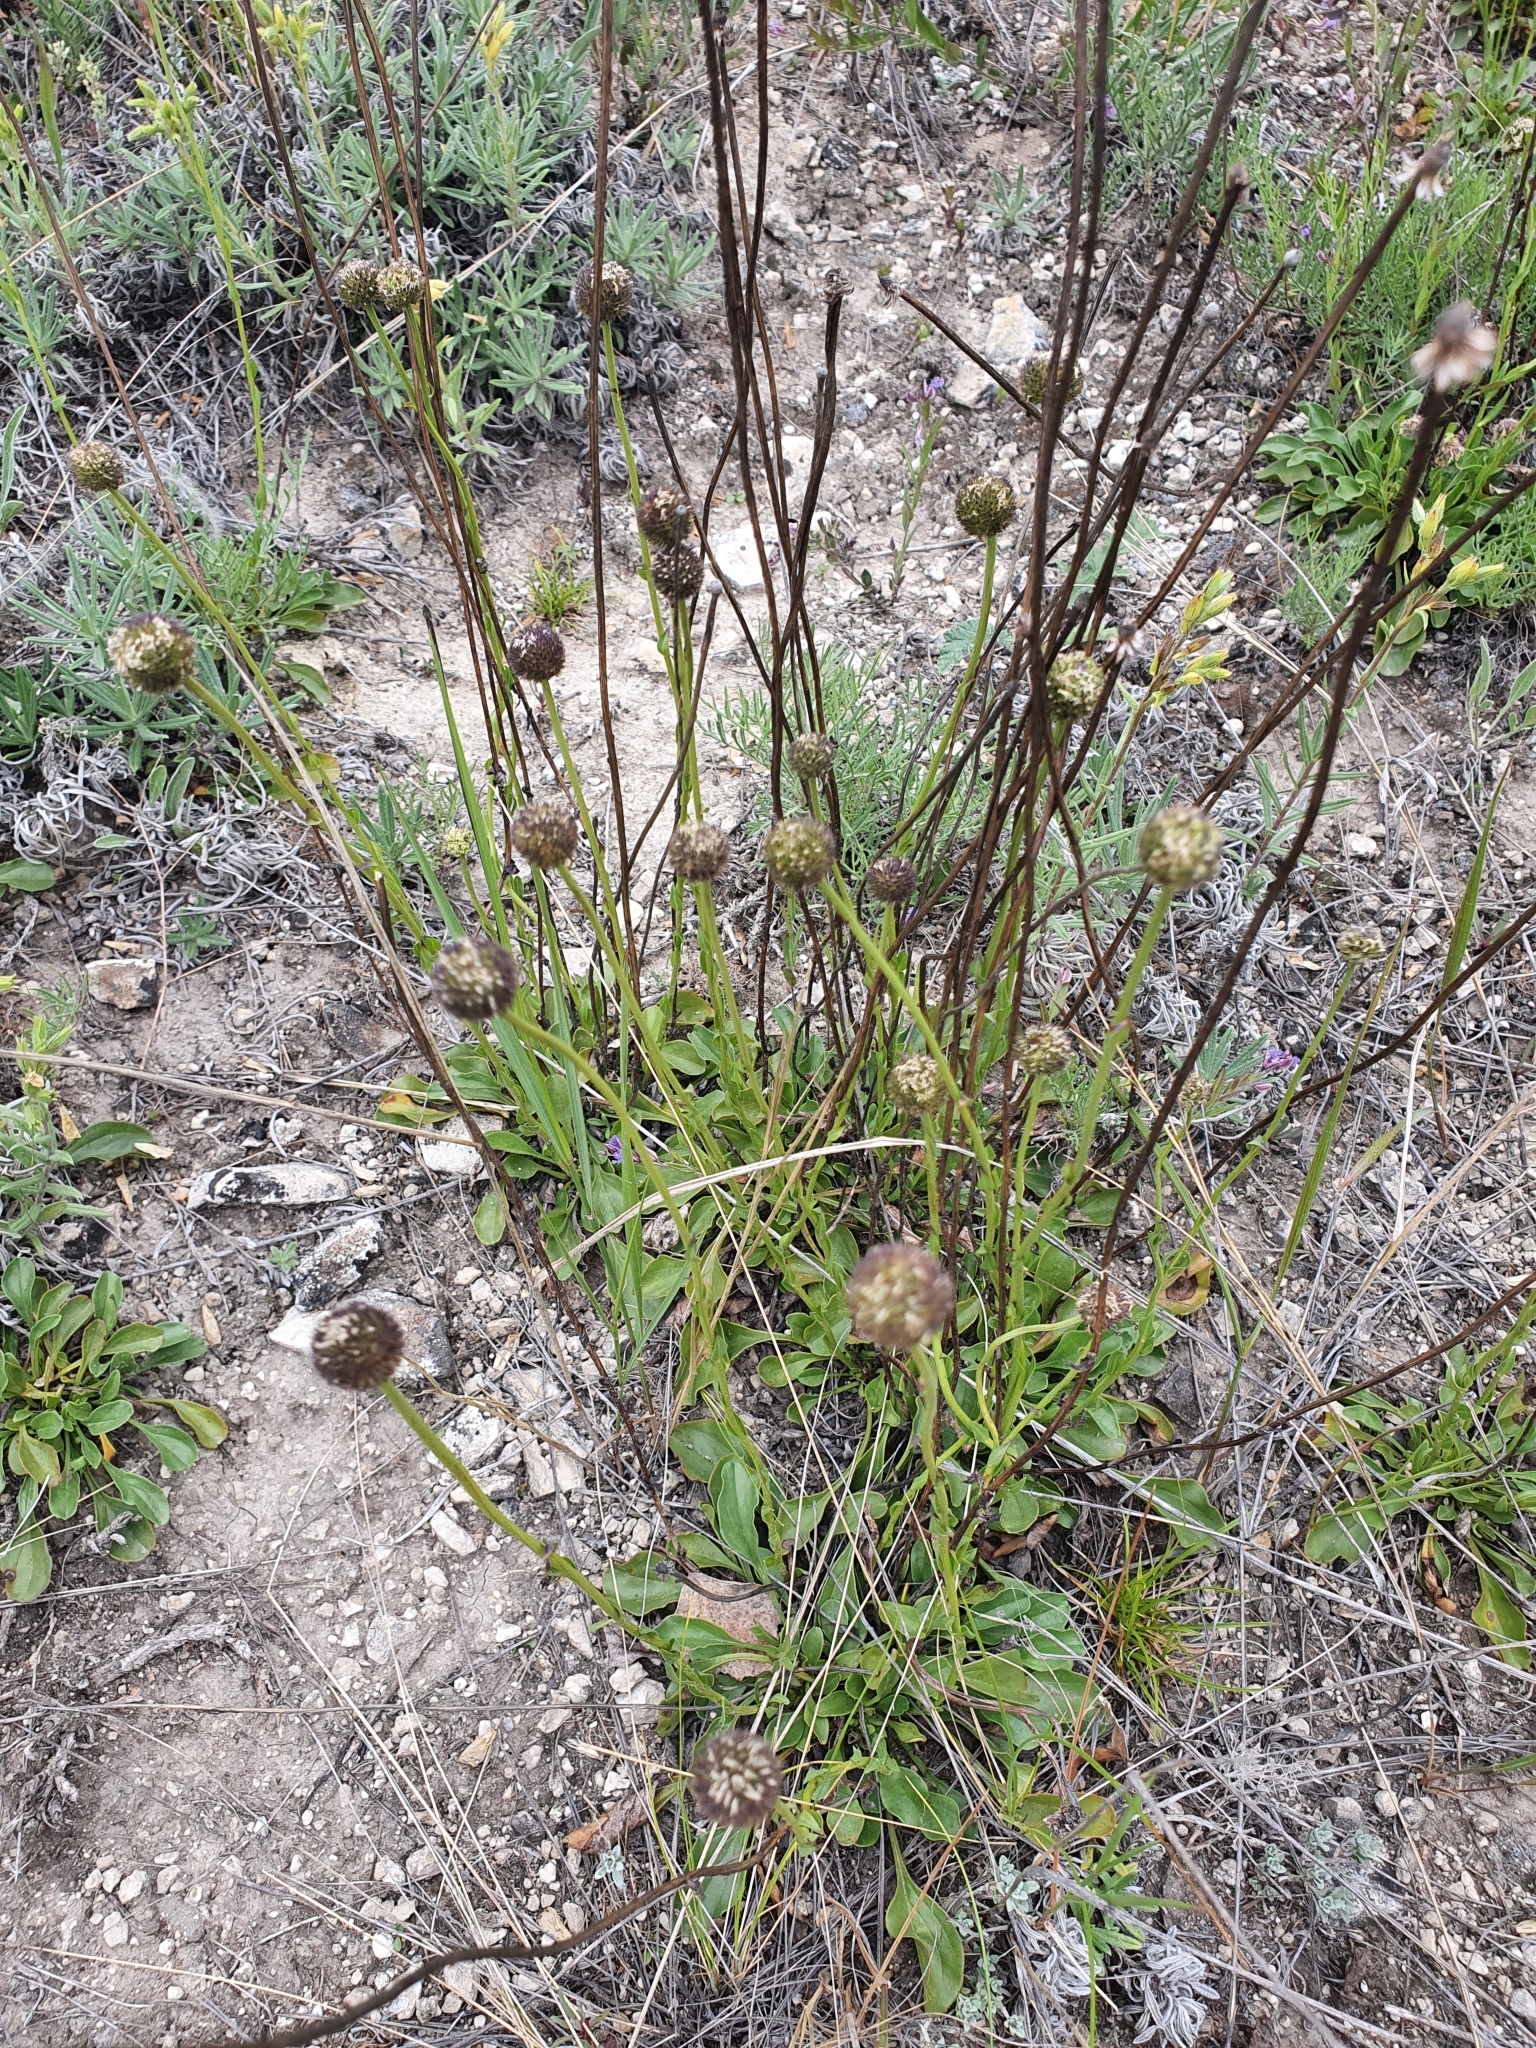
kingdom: Plantae
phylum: Tracheophyta
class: Magnoliopsida
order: Lamiales
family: Plantaginaceae
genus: Globularia
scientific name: Globularia bisnagarica
